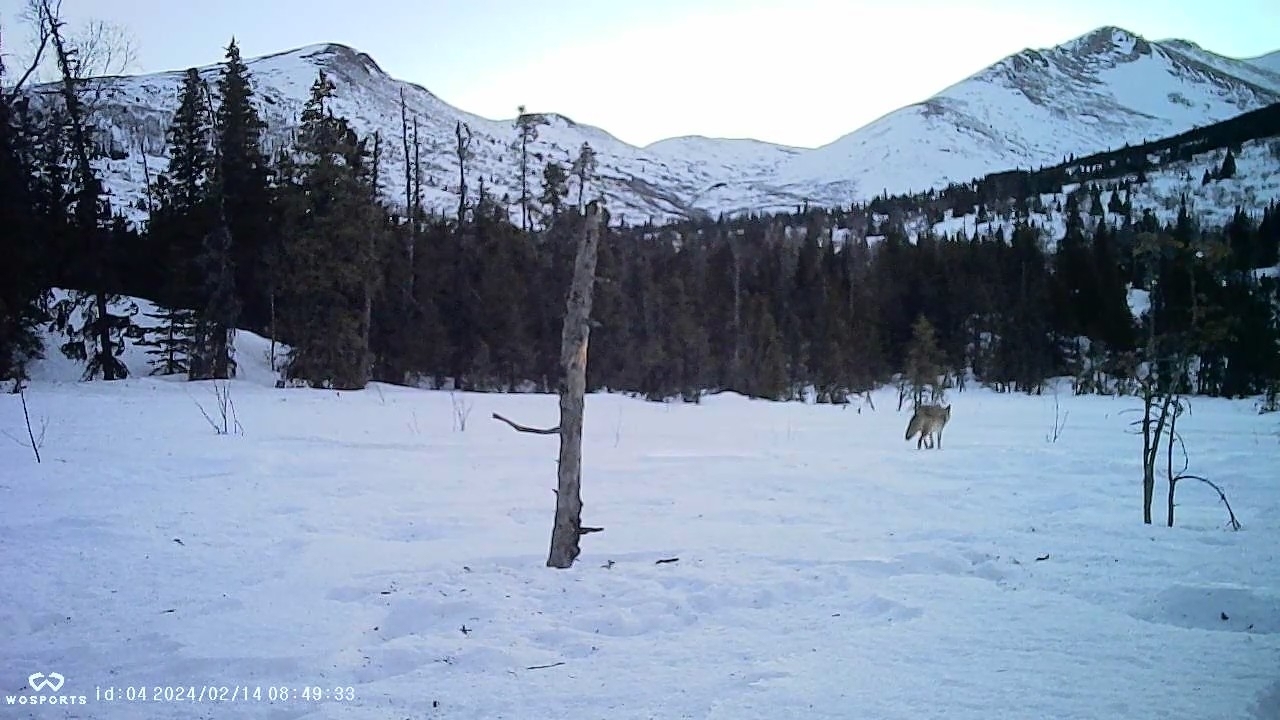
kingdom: Animalia
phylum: Chordata
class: Mammalia
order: Carnivora
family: Canidae
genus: Canis
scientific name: Canis latrans
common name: Coyote
